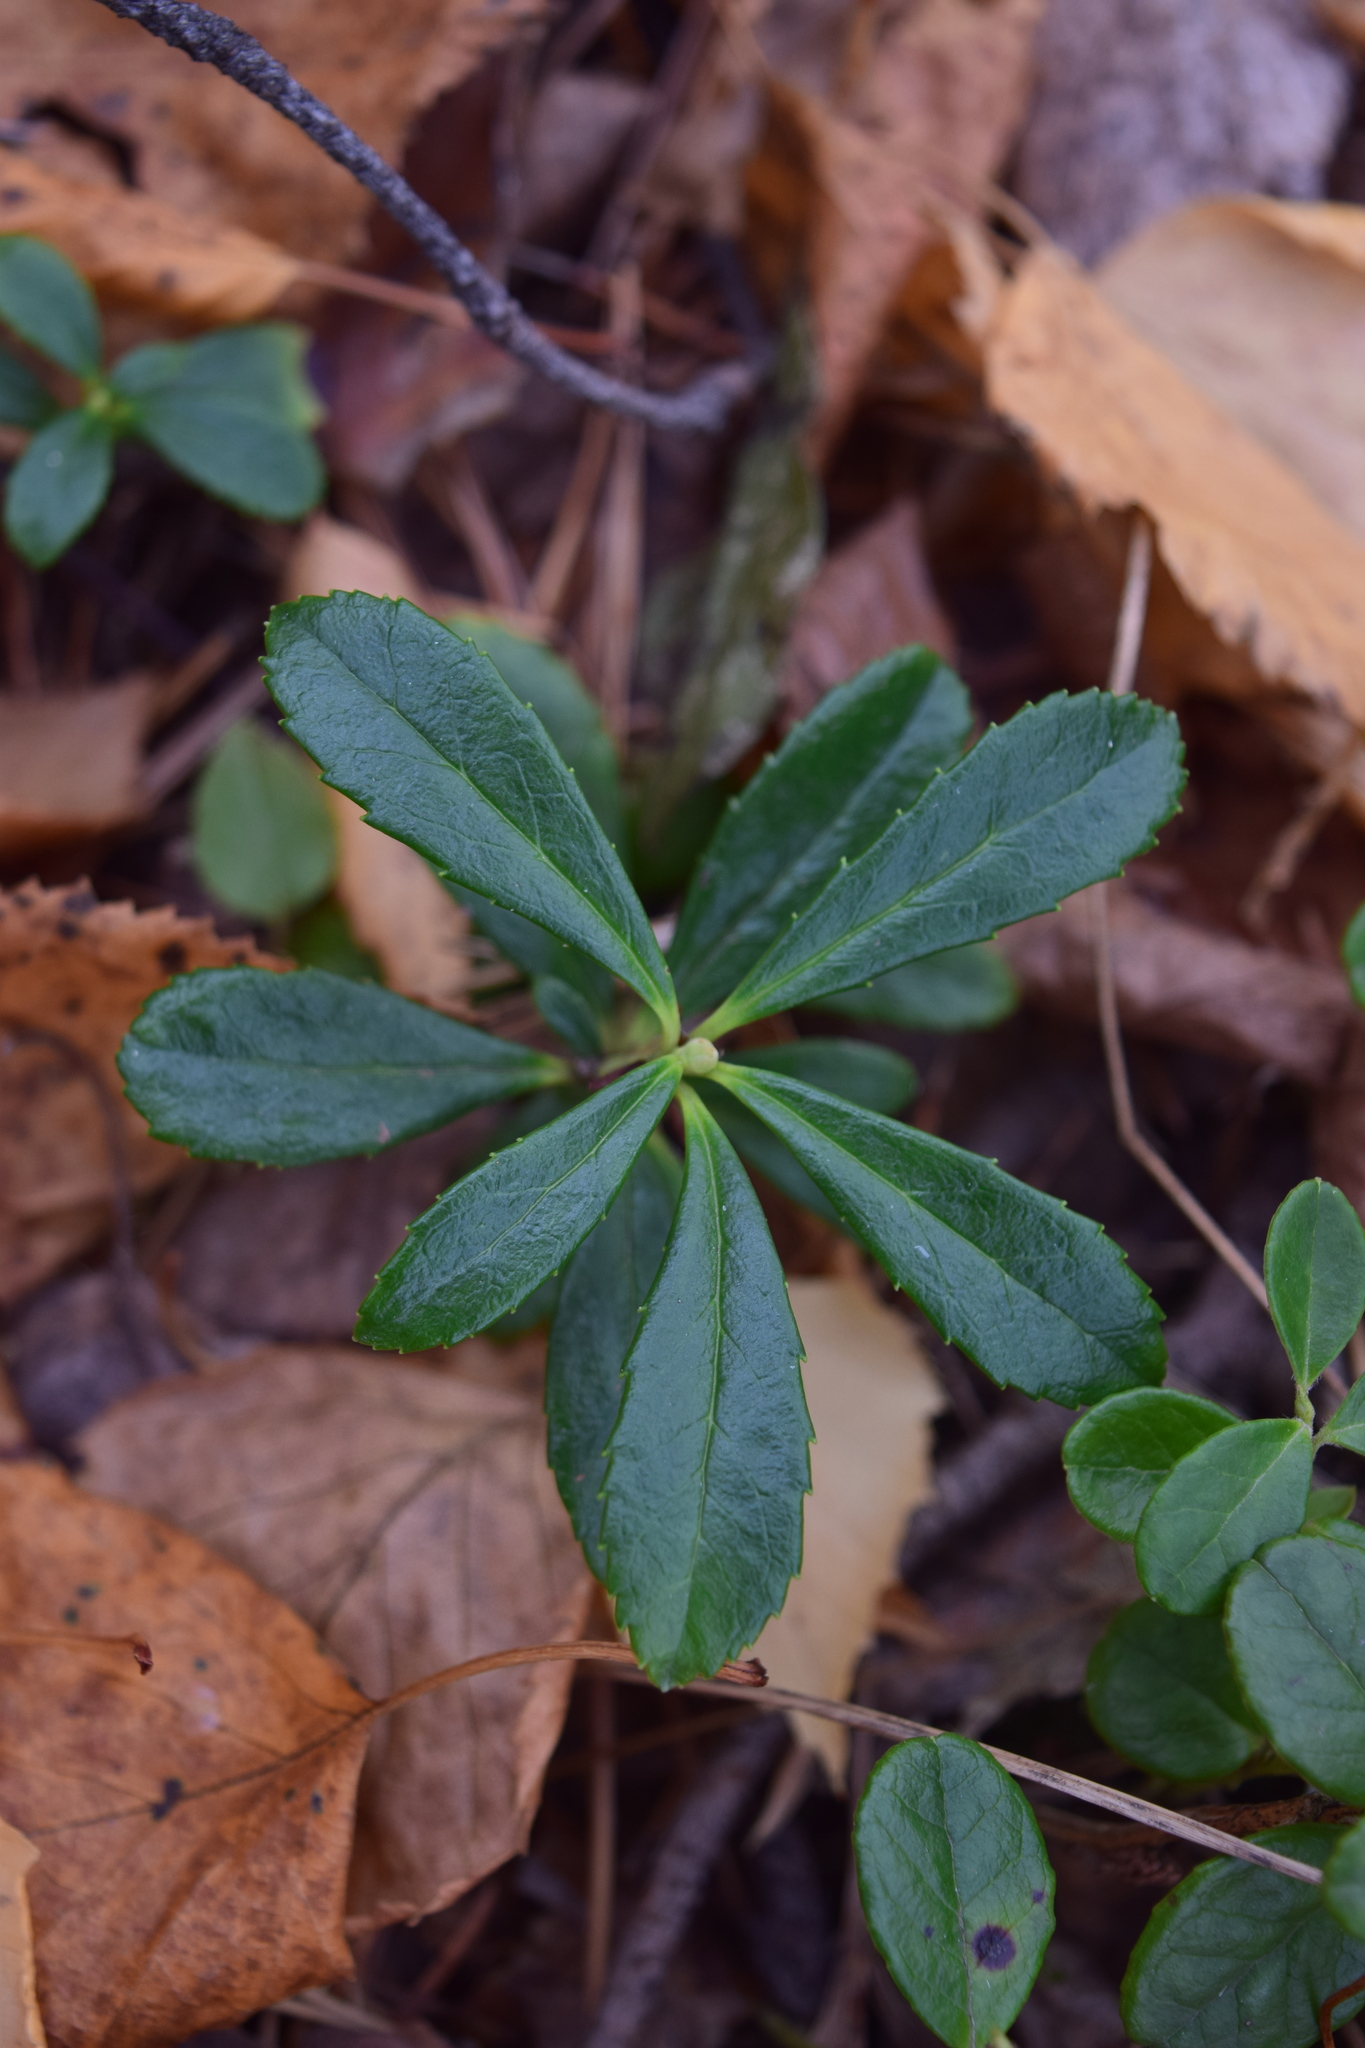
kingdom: Plantae
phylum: Tracheophyta
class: Magnoliopsida
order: Ericales
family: Ericaceae
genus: Chimaphila
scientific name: Chimaphila umbellata
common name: Pipsissewa
